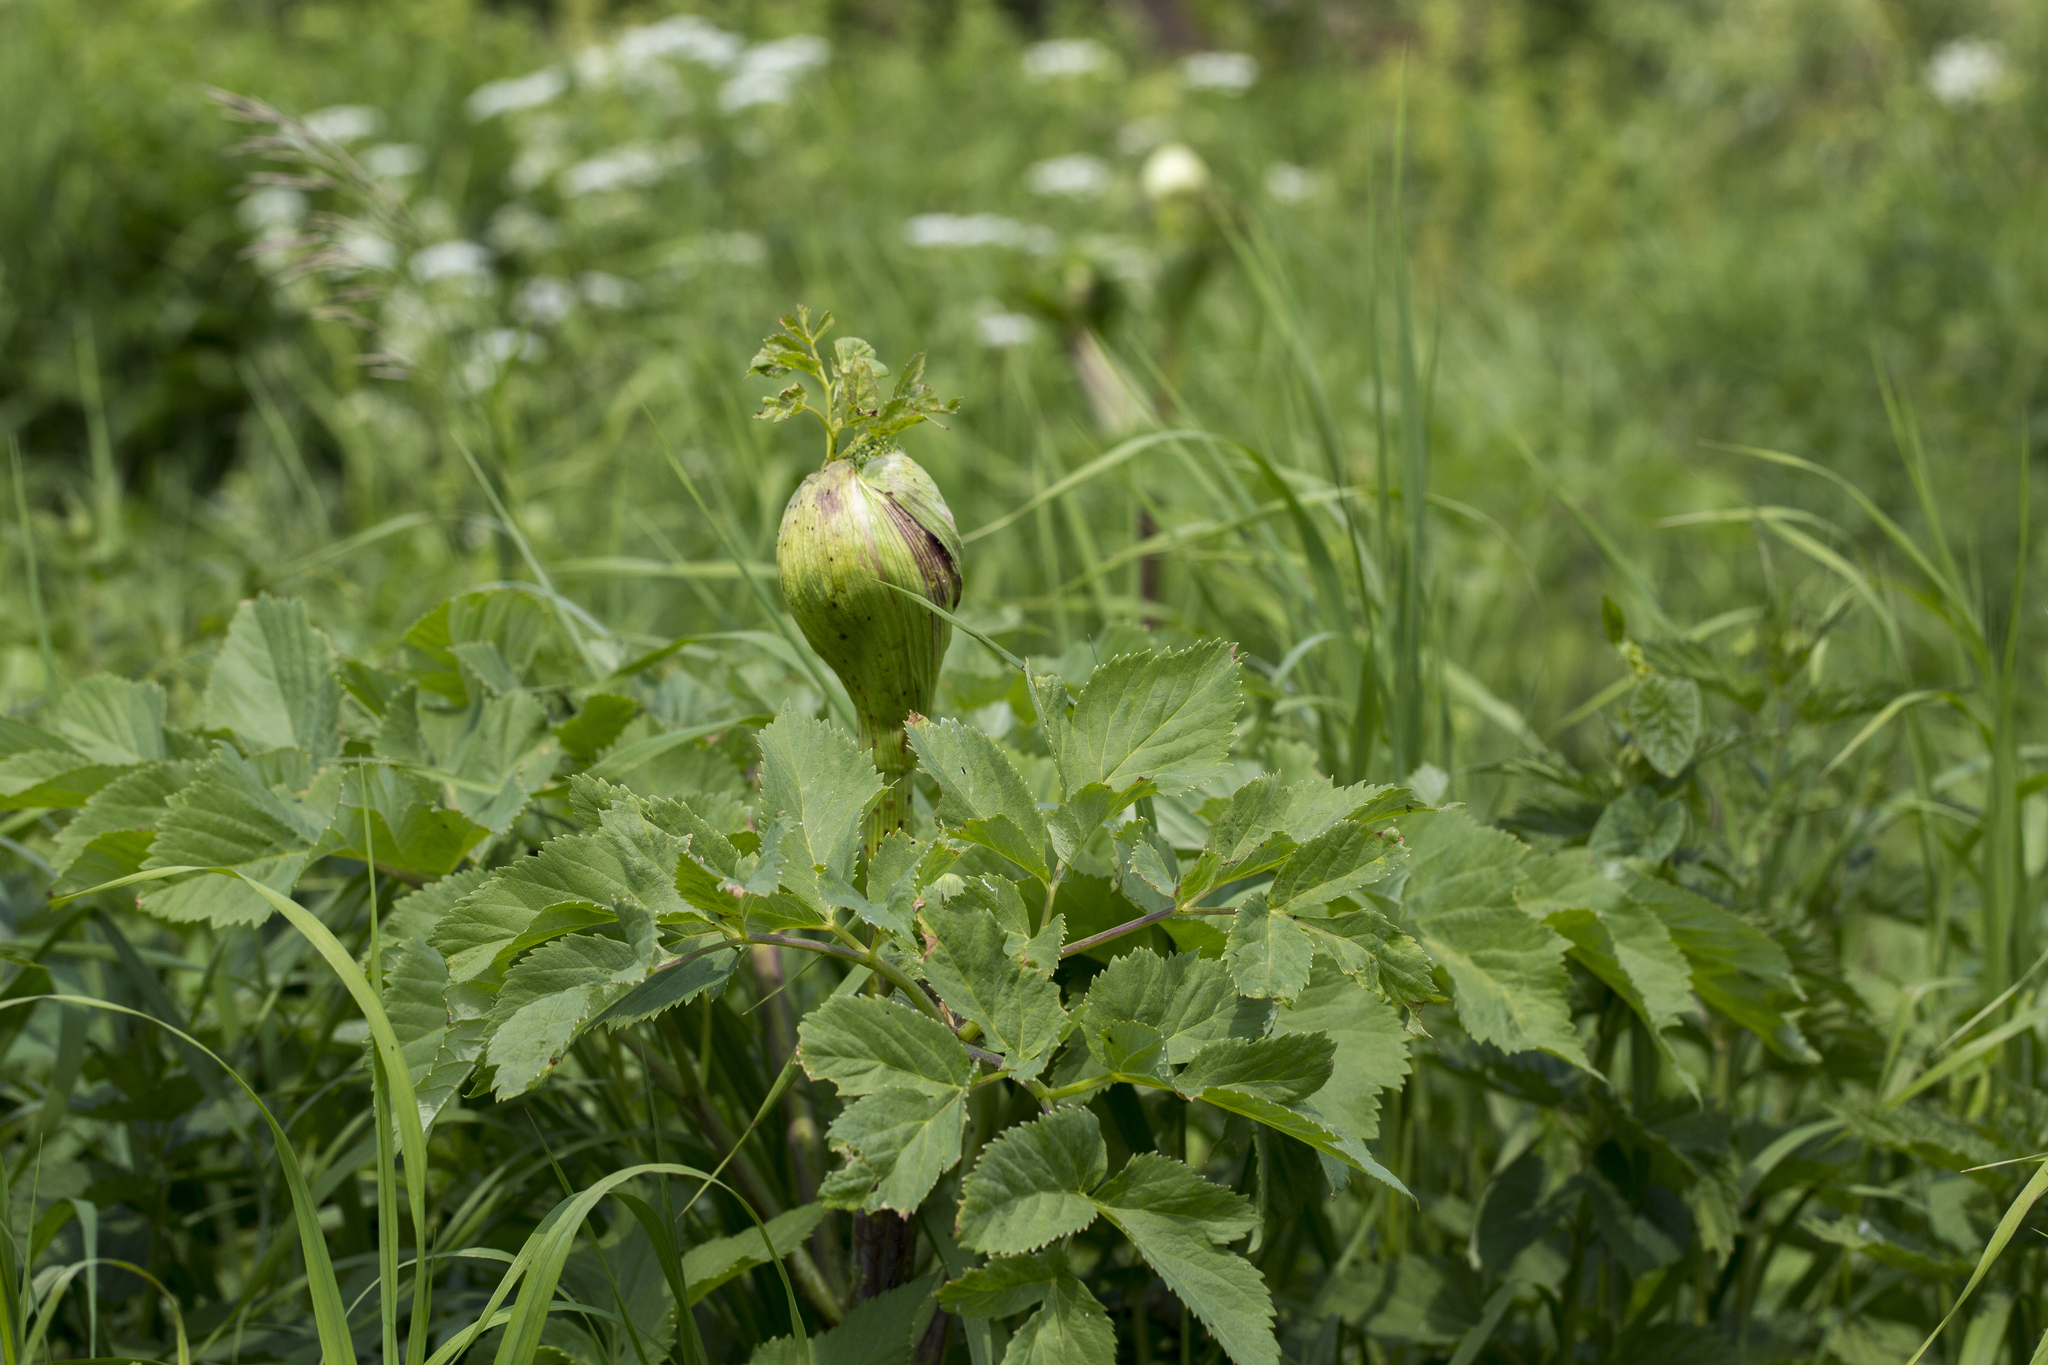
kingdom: Plantae
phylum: Tracheophyta
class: Magnoliopsida
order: Apiales
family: Apiaceae
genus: Angelica
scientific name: Angelica archangelica
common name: Garden angelica
